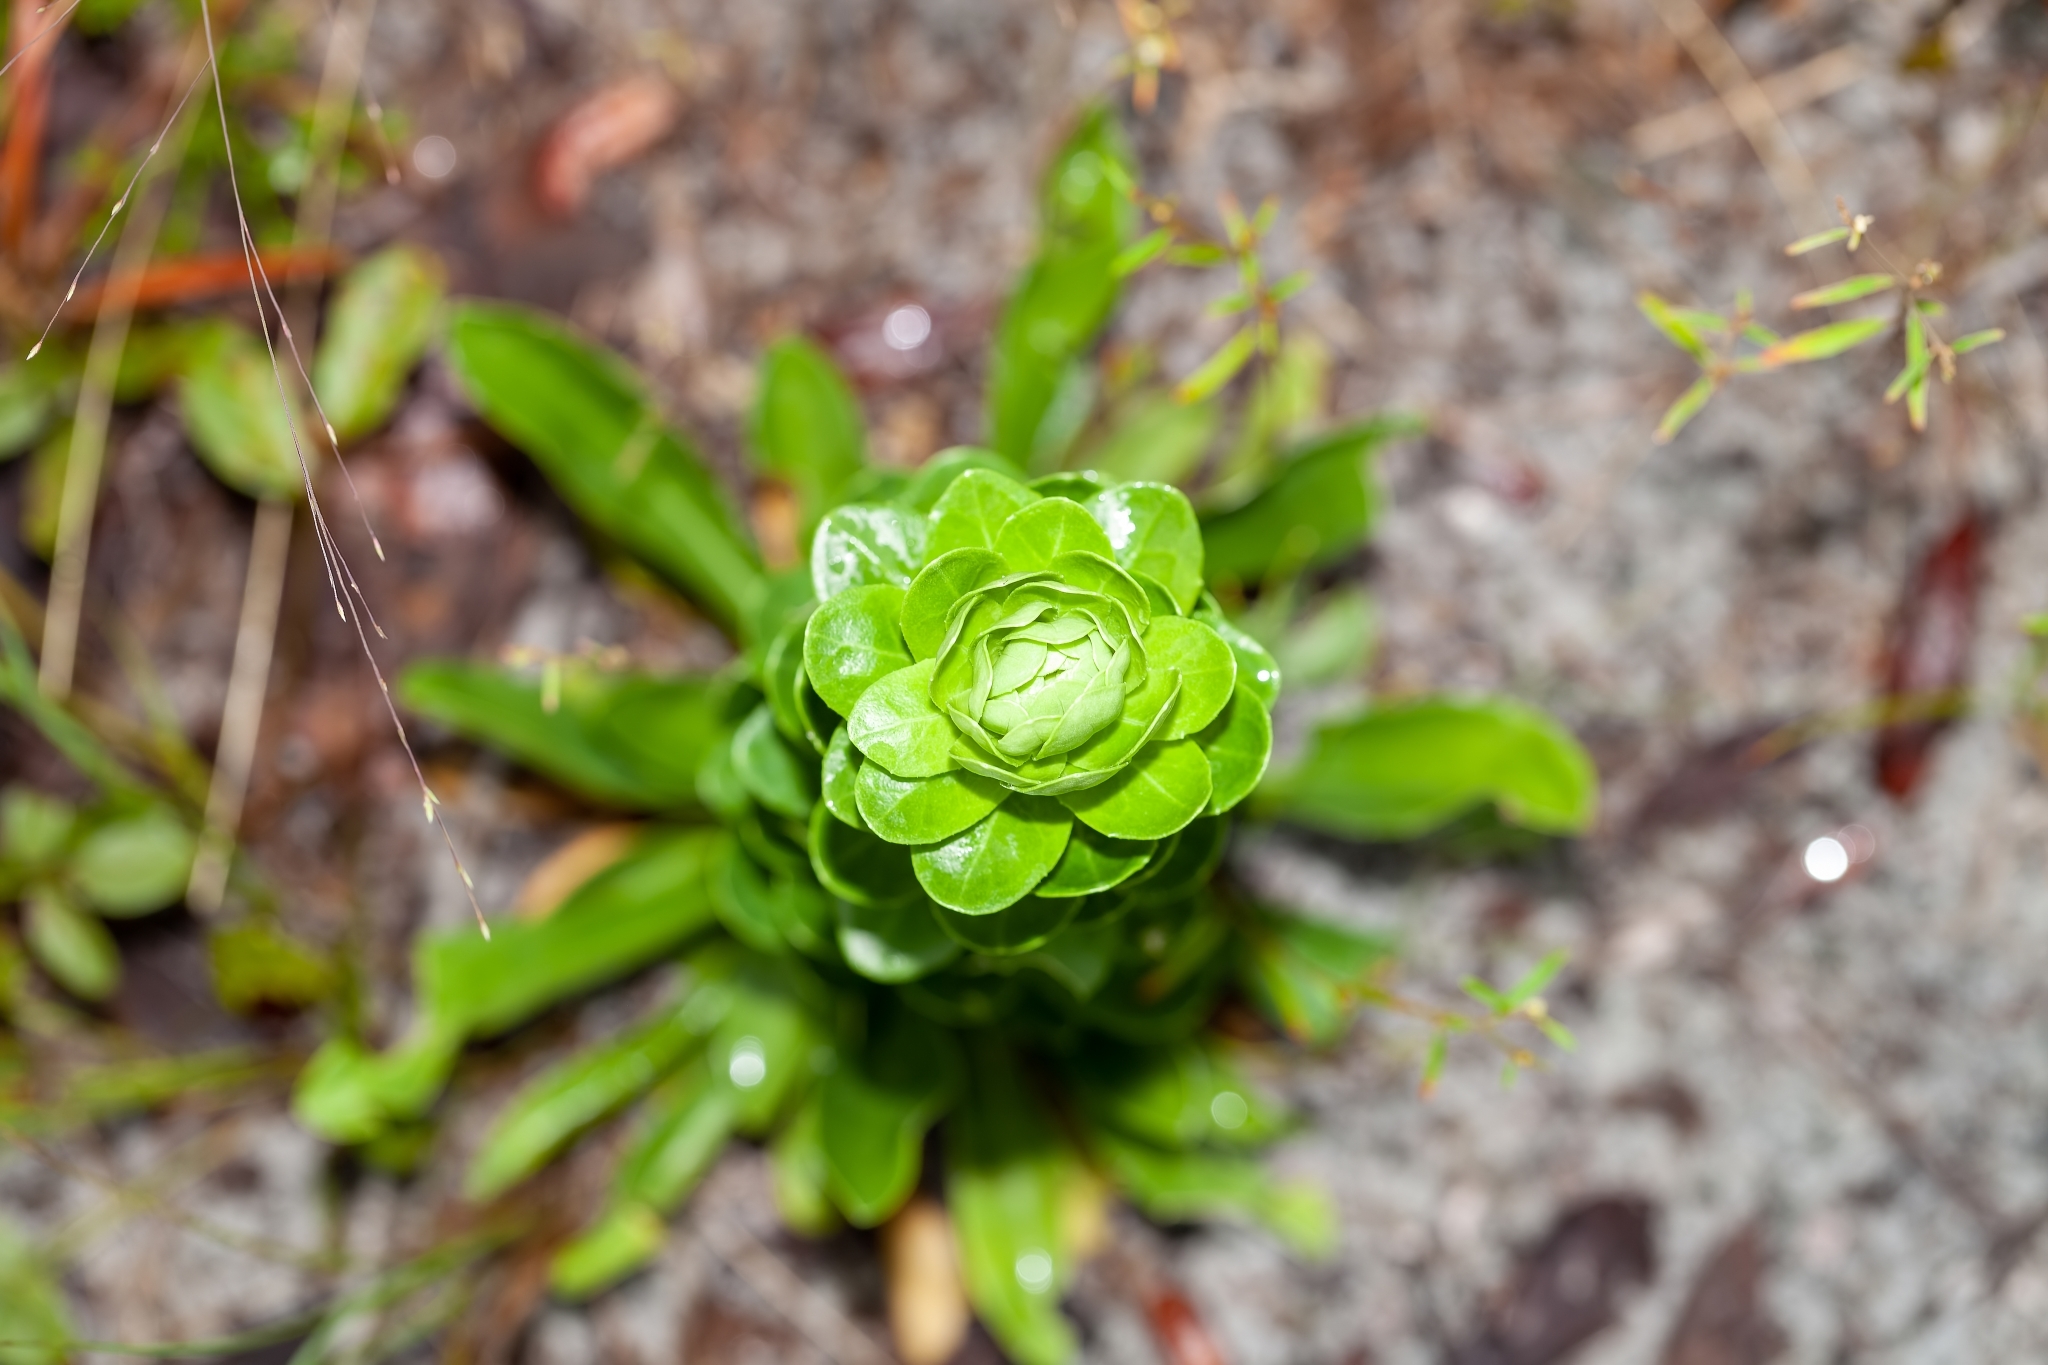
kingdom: Plantae
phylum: Tracheophyta
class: Magnoliopsida
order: Asterales
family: Asteraceae
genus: Carphephorus
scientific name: Carphephorus corymbosus
